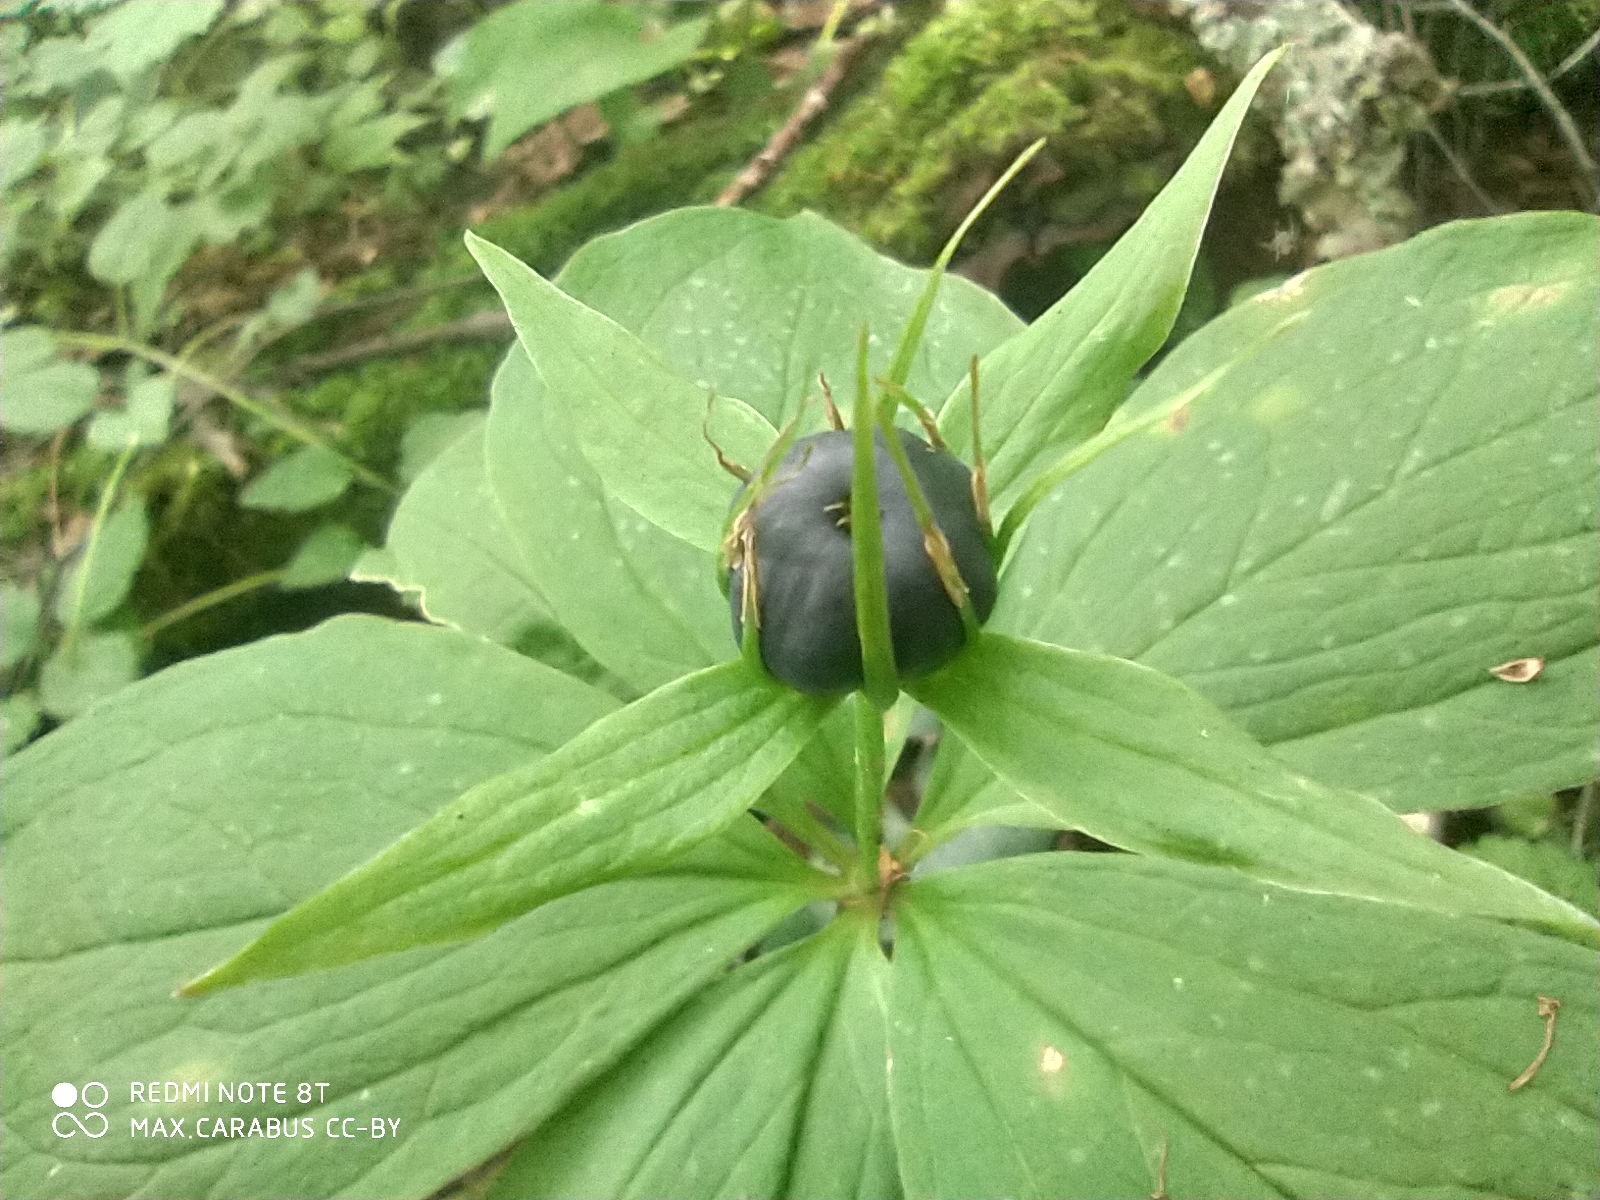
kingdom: Plantae
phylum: Tracheophyta
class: Liliopsida
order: Liliales
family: Melanthiaceae
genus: Paris
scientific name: Paris quadrifolia
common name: Herb-paris
